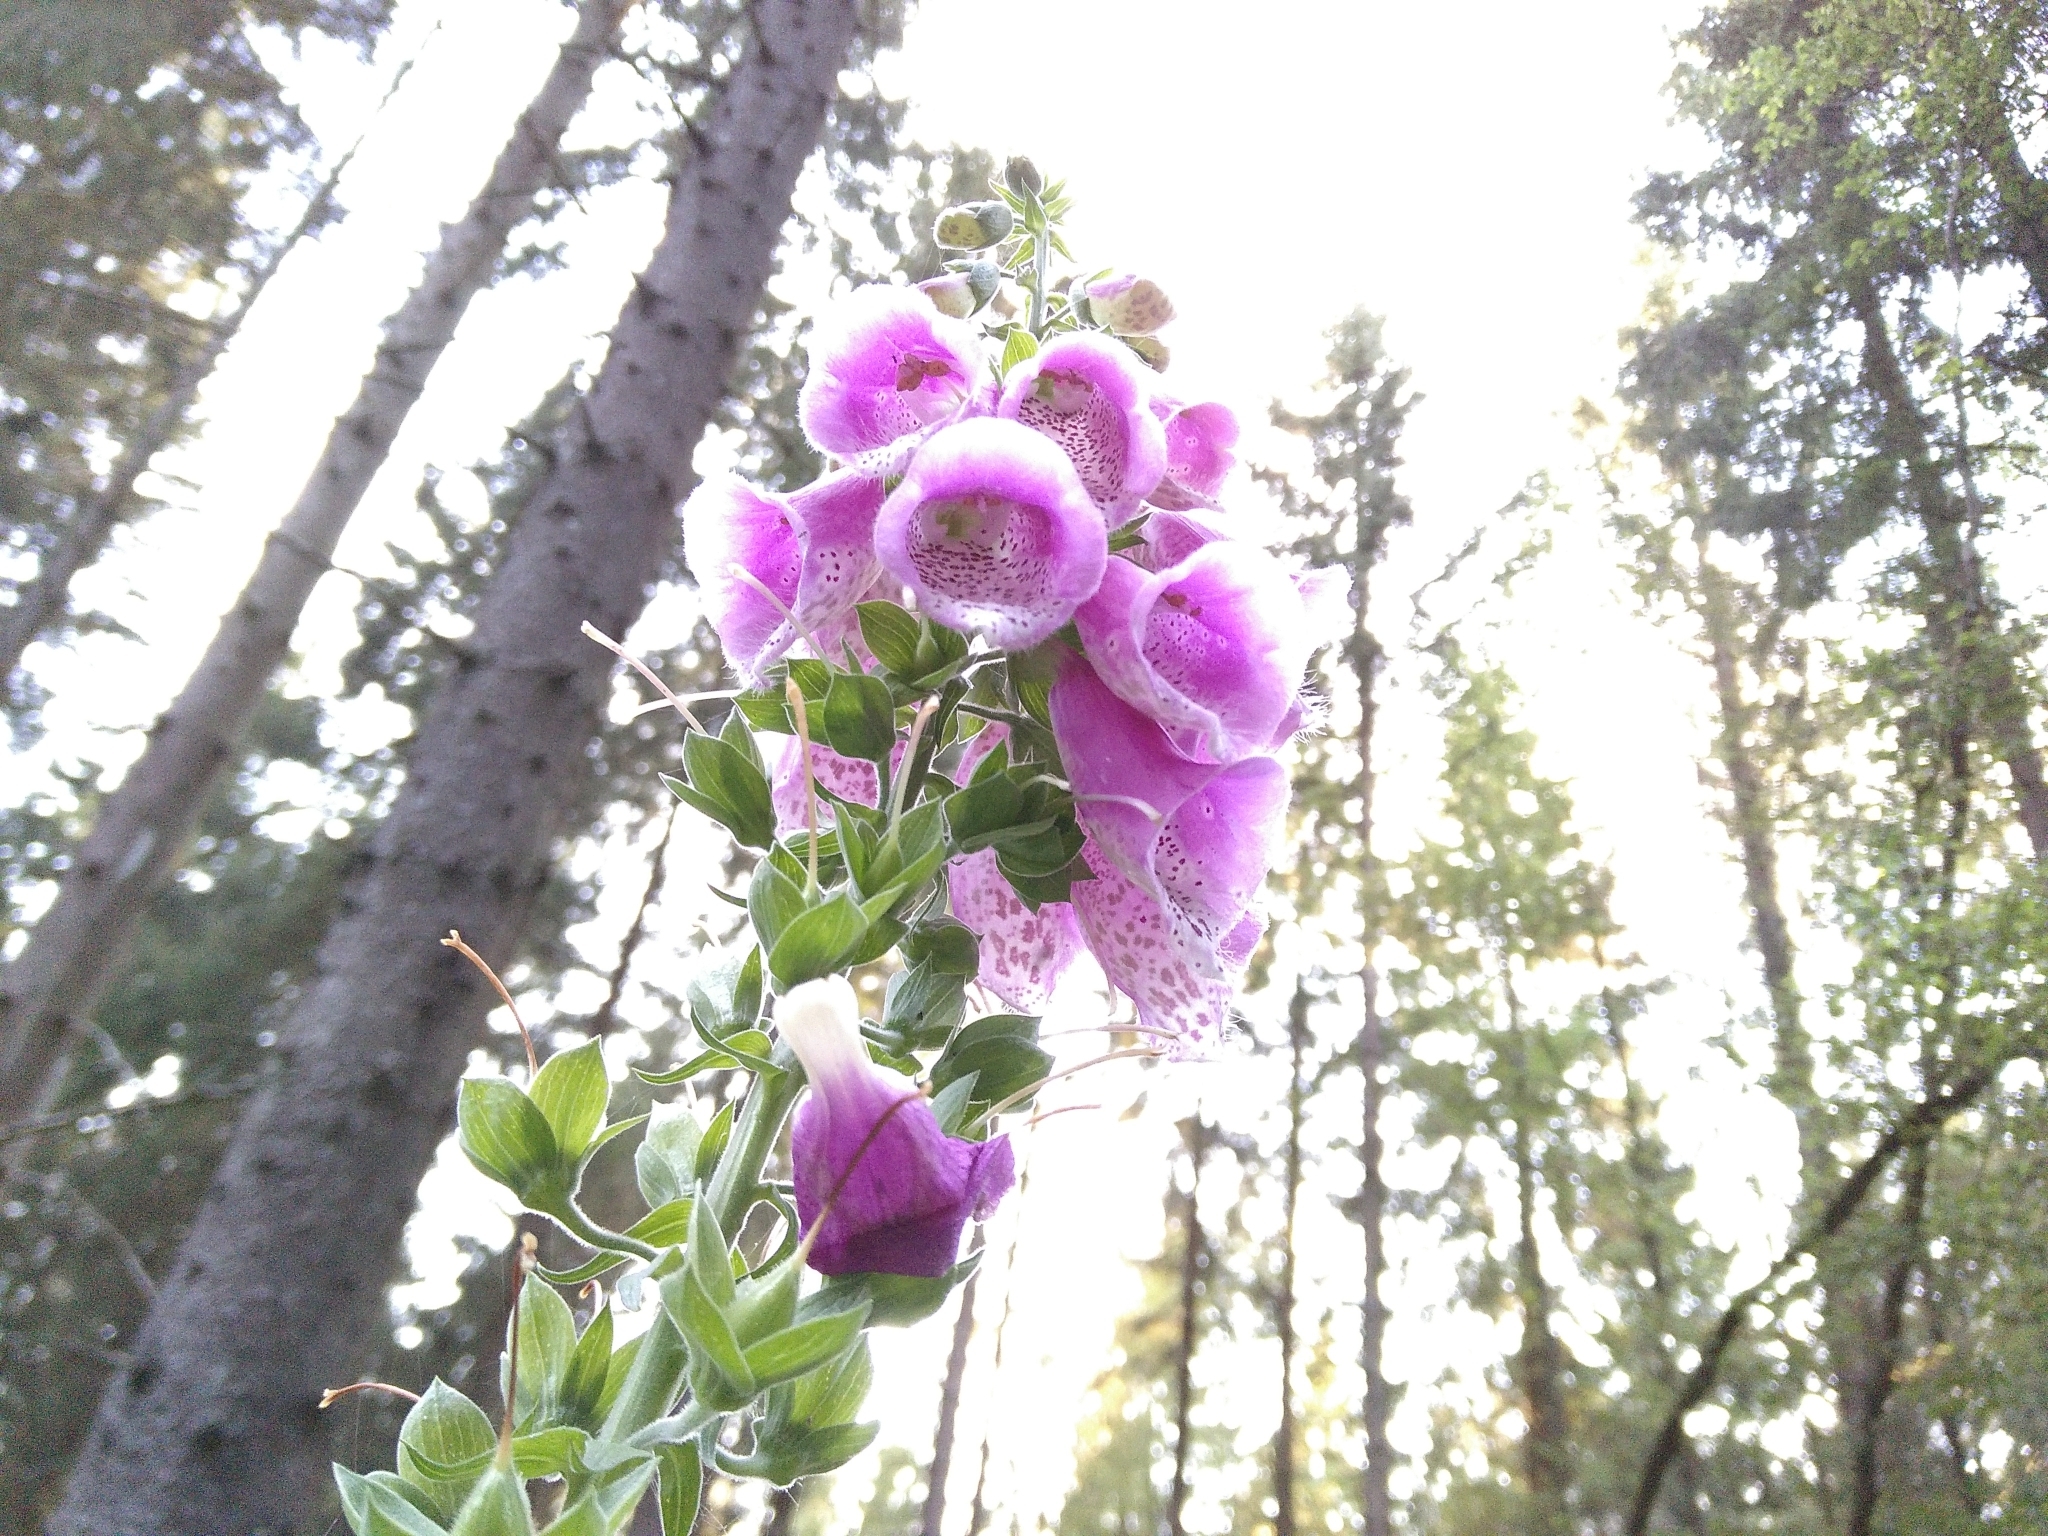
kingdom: Plantae
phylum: Tracheophyta
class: Magnoliopsida
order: Lamiales
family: Plantaginaceae
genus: Digitalis
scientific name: Digitalis purpurea
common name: Foxglove
